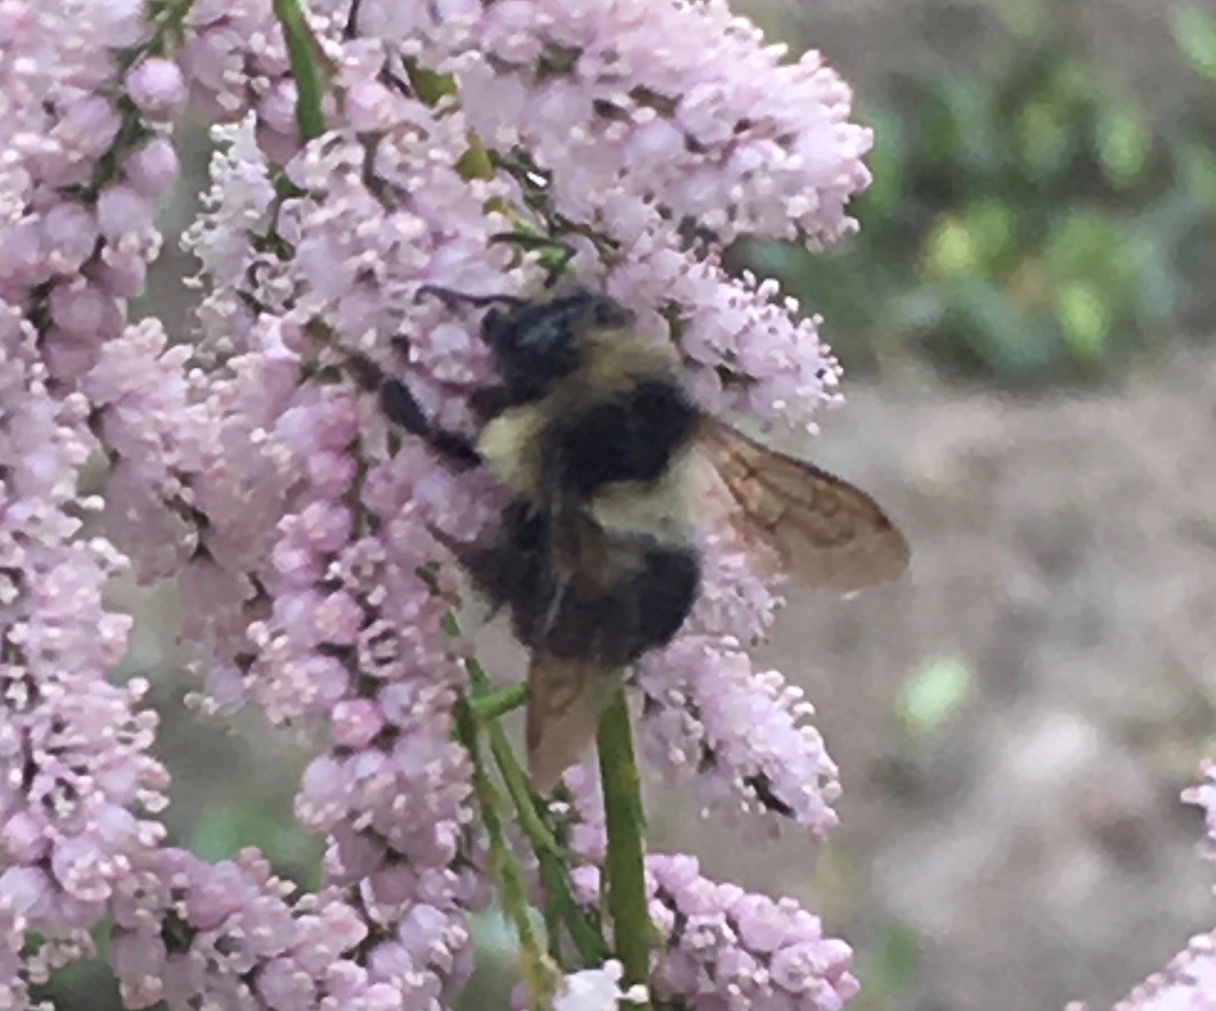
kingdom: Animalia
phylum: Arthropoda
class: Insecta
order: Hymenoptera
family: Apidae
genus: Bombus
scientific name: Bombus melanopygus
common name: Black tail bumble bee
